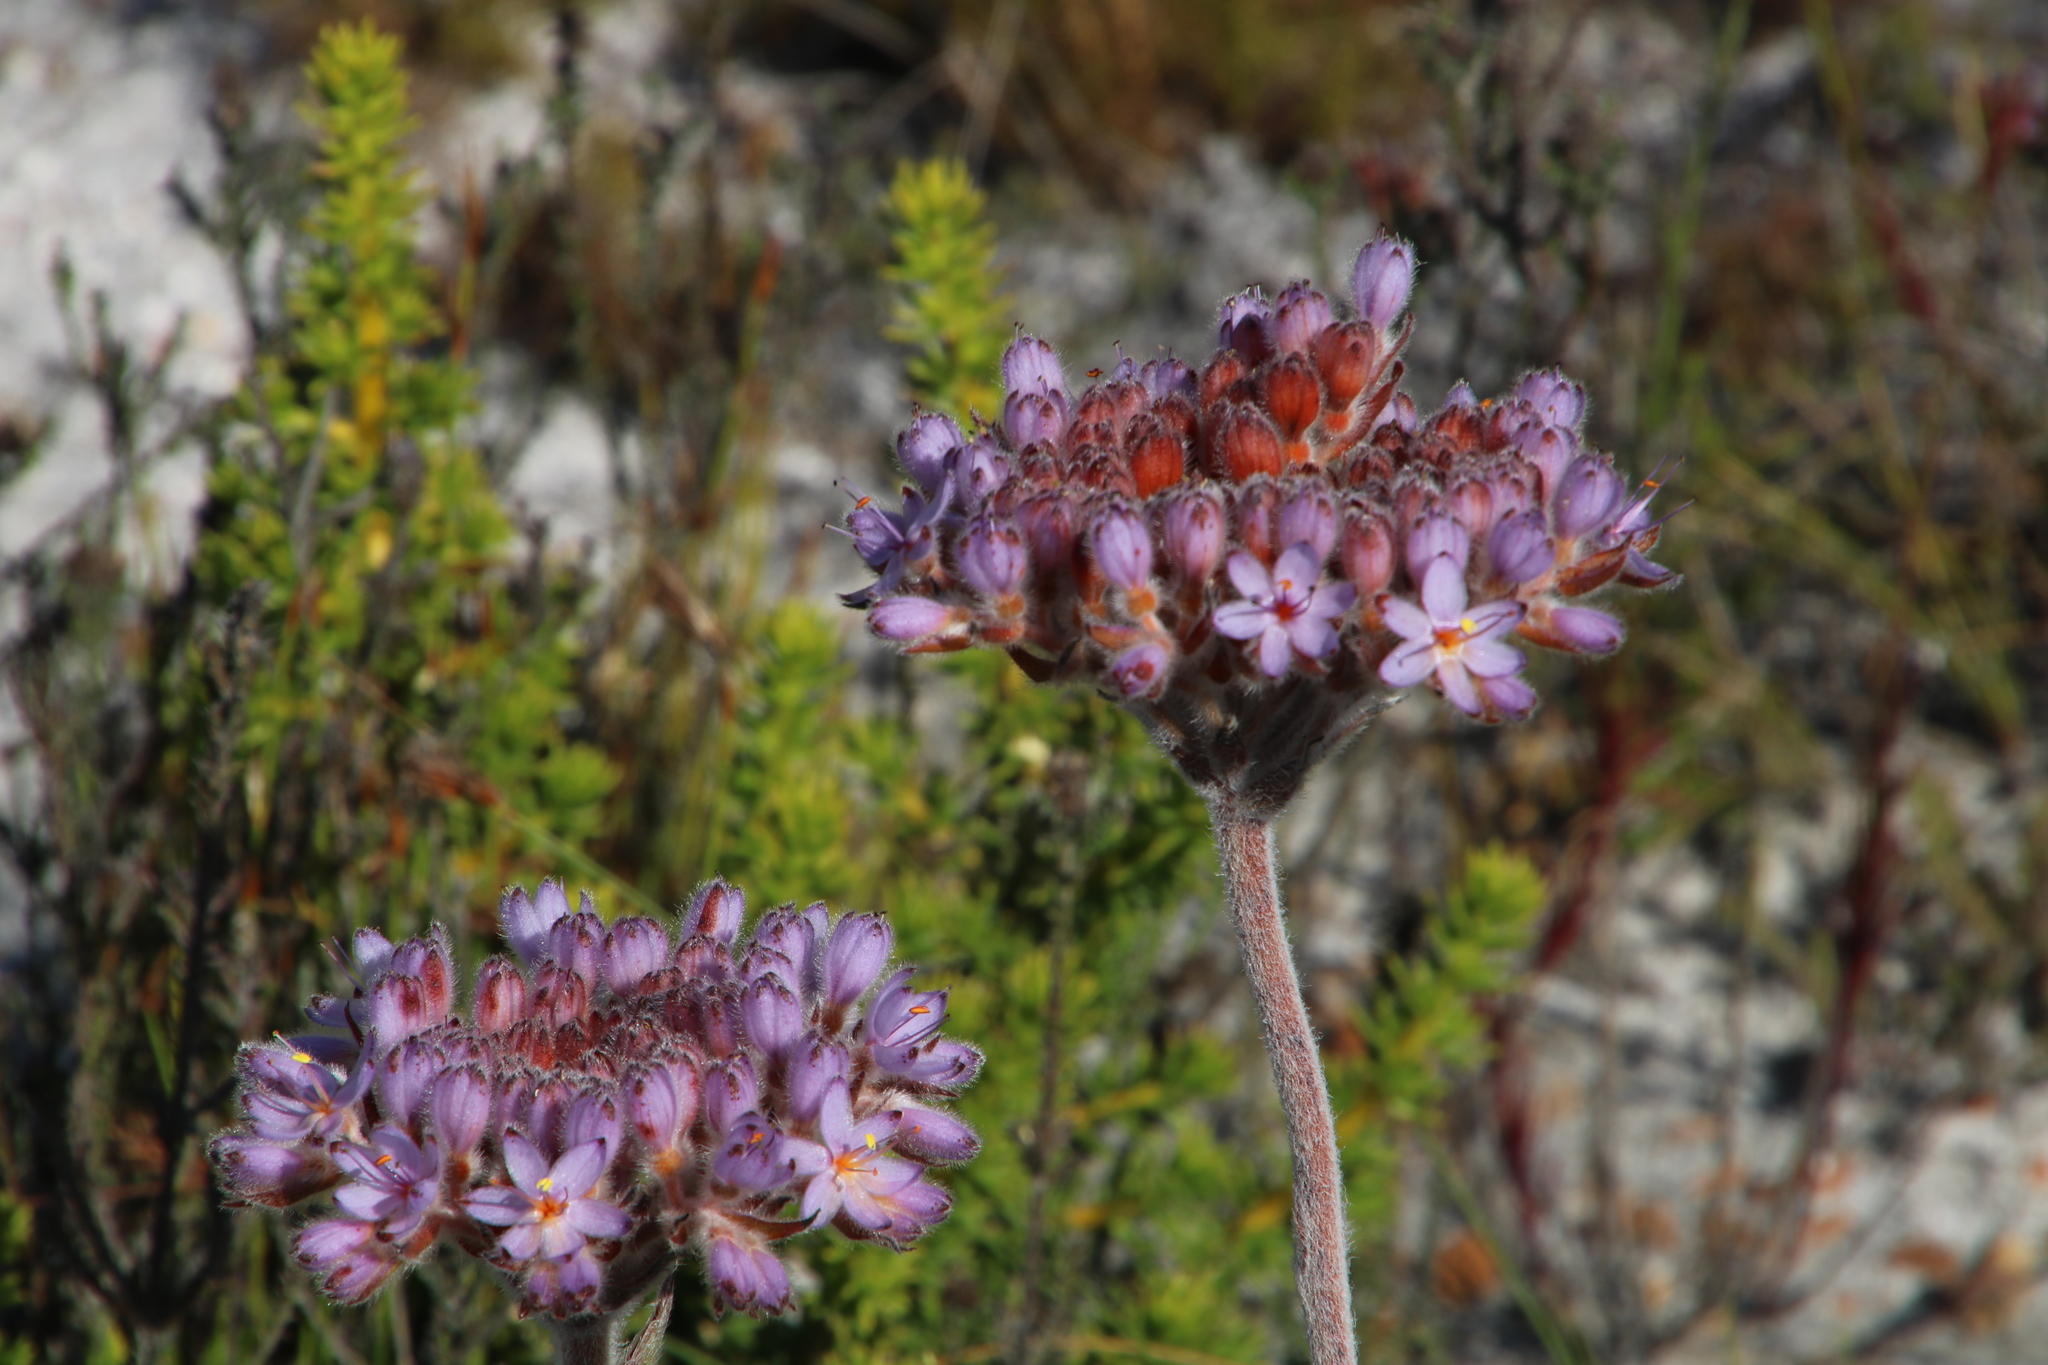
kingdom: Plantae
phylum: Tracheophyta
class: Liliopsida
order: Commelinales
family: Haemodoraceae
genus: Dilatris
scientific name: Dilatris corymbosa
